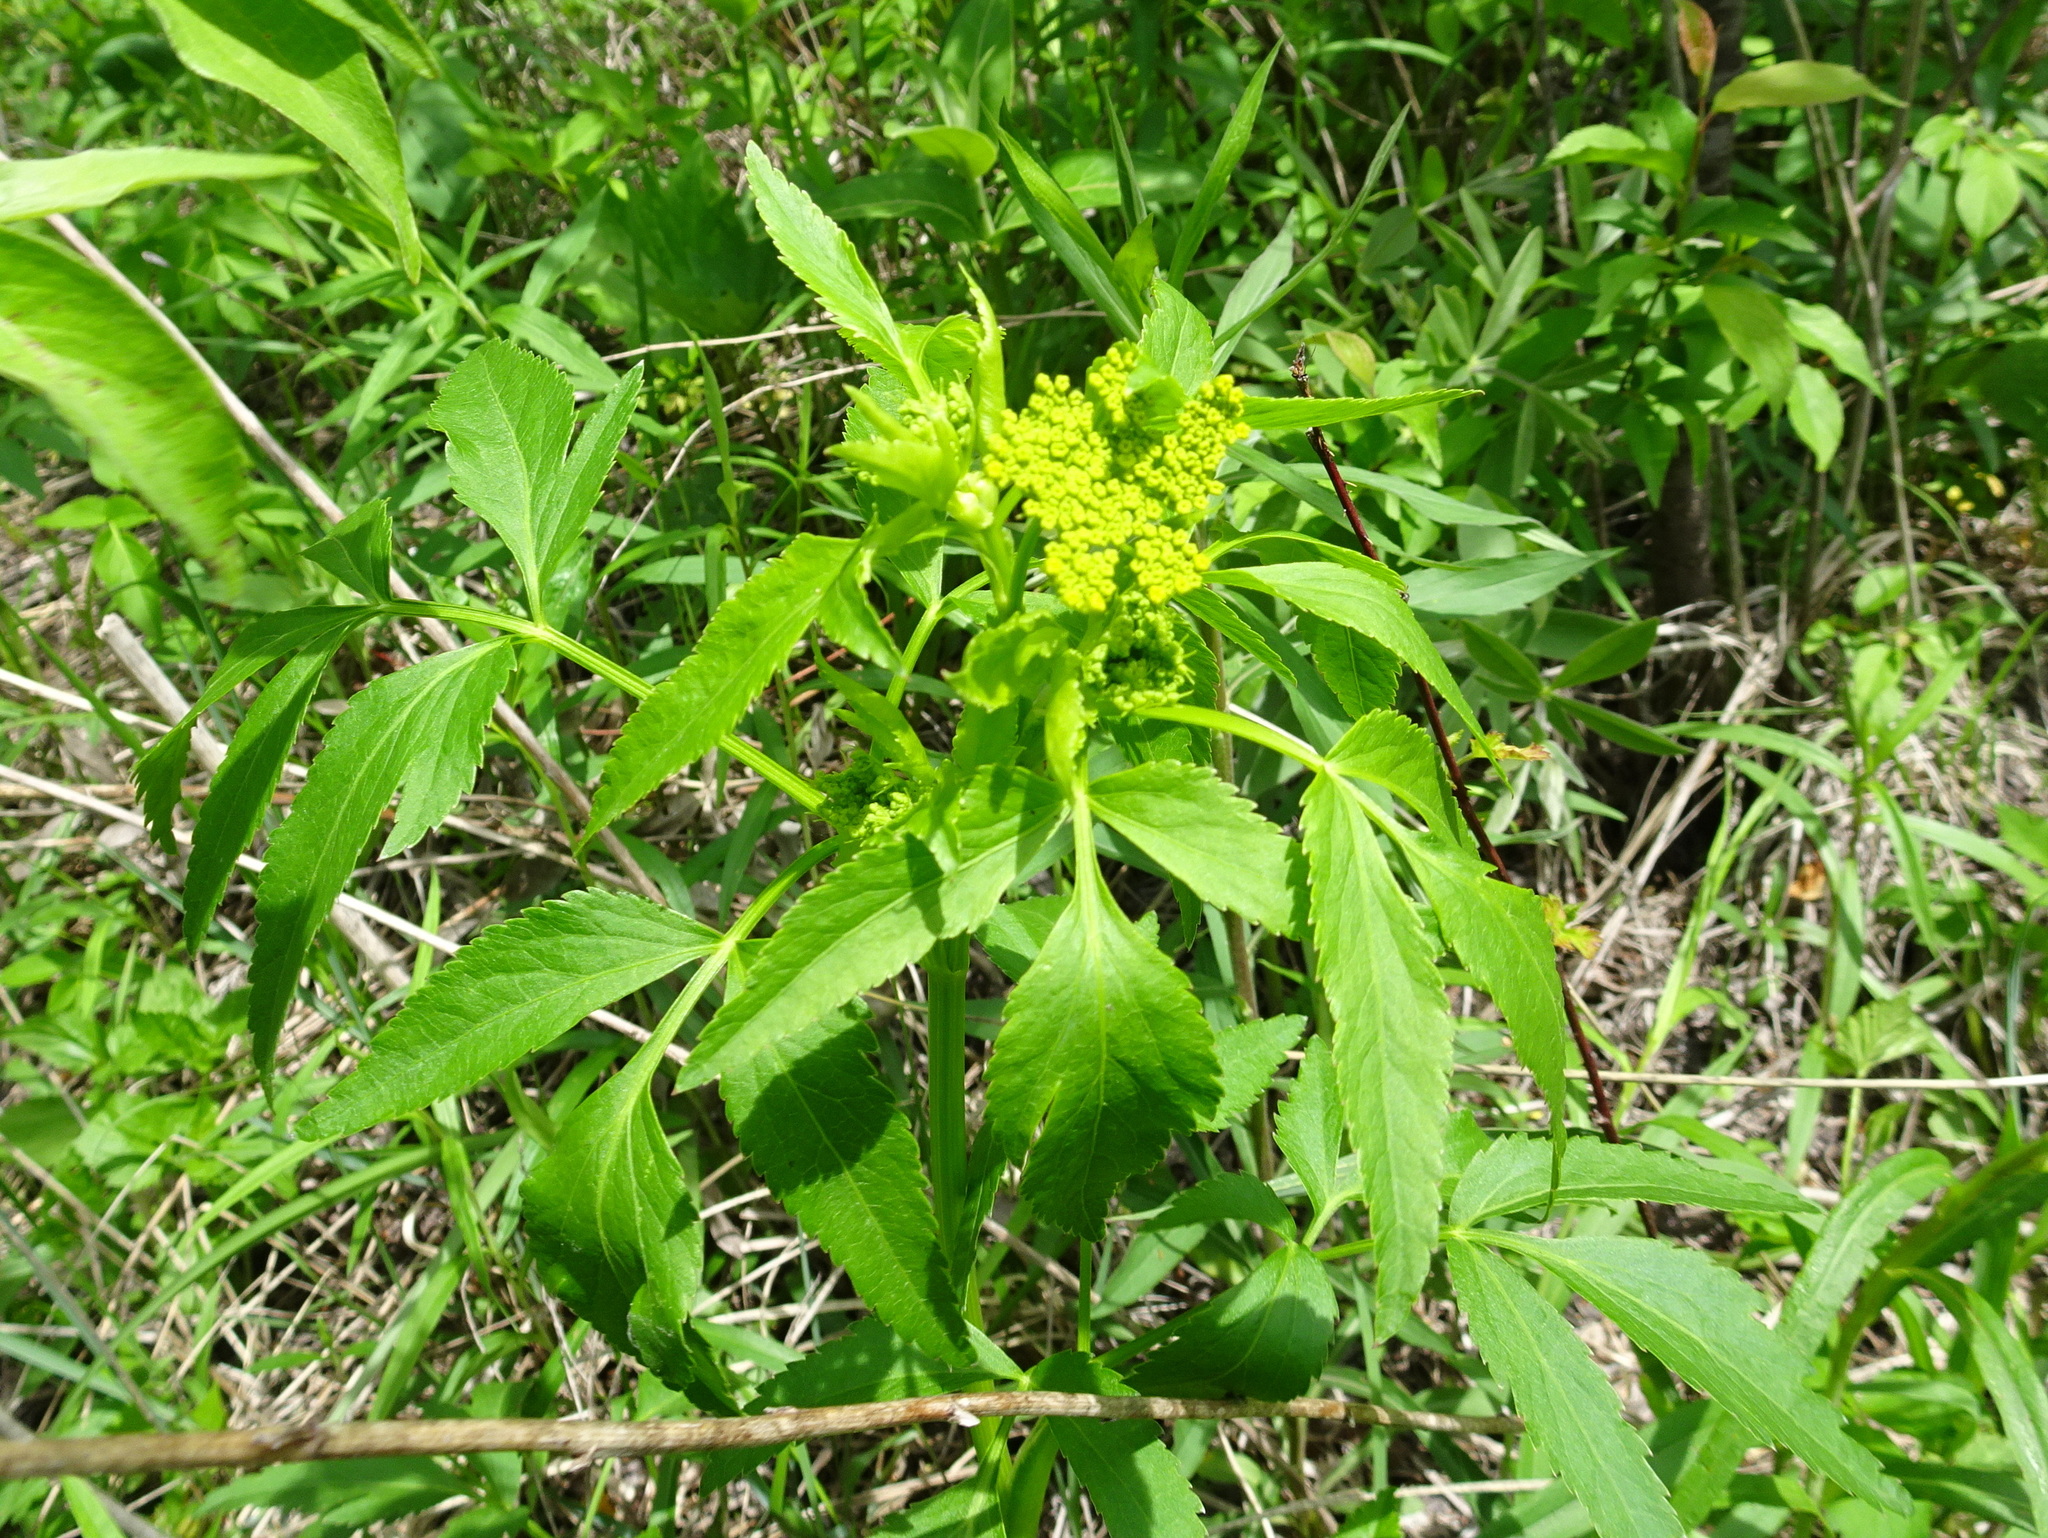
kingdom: Plantae
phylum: Tracheophyta
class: Magnoliopsida
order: Apiales
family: Apiaceae
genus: Zizia
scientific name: Zizia aurea
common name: Golden alexanders
